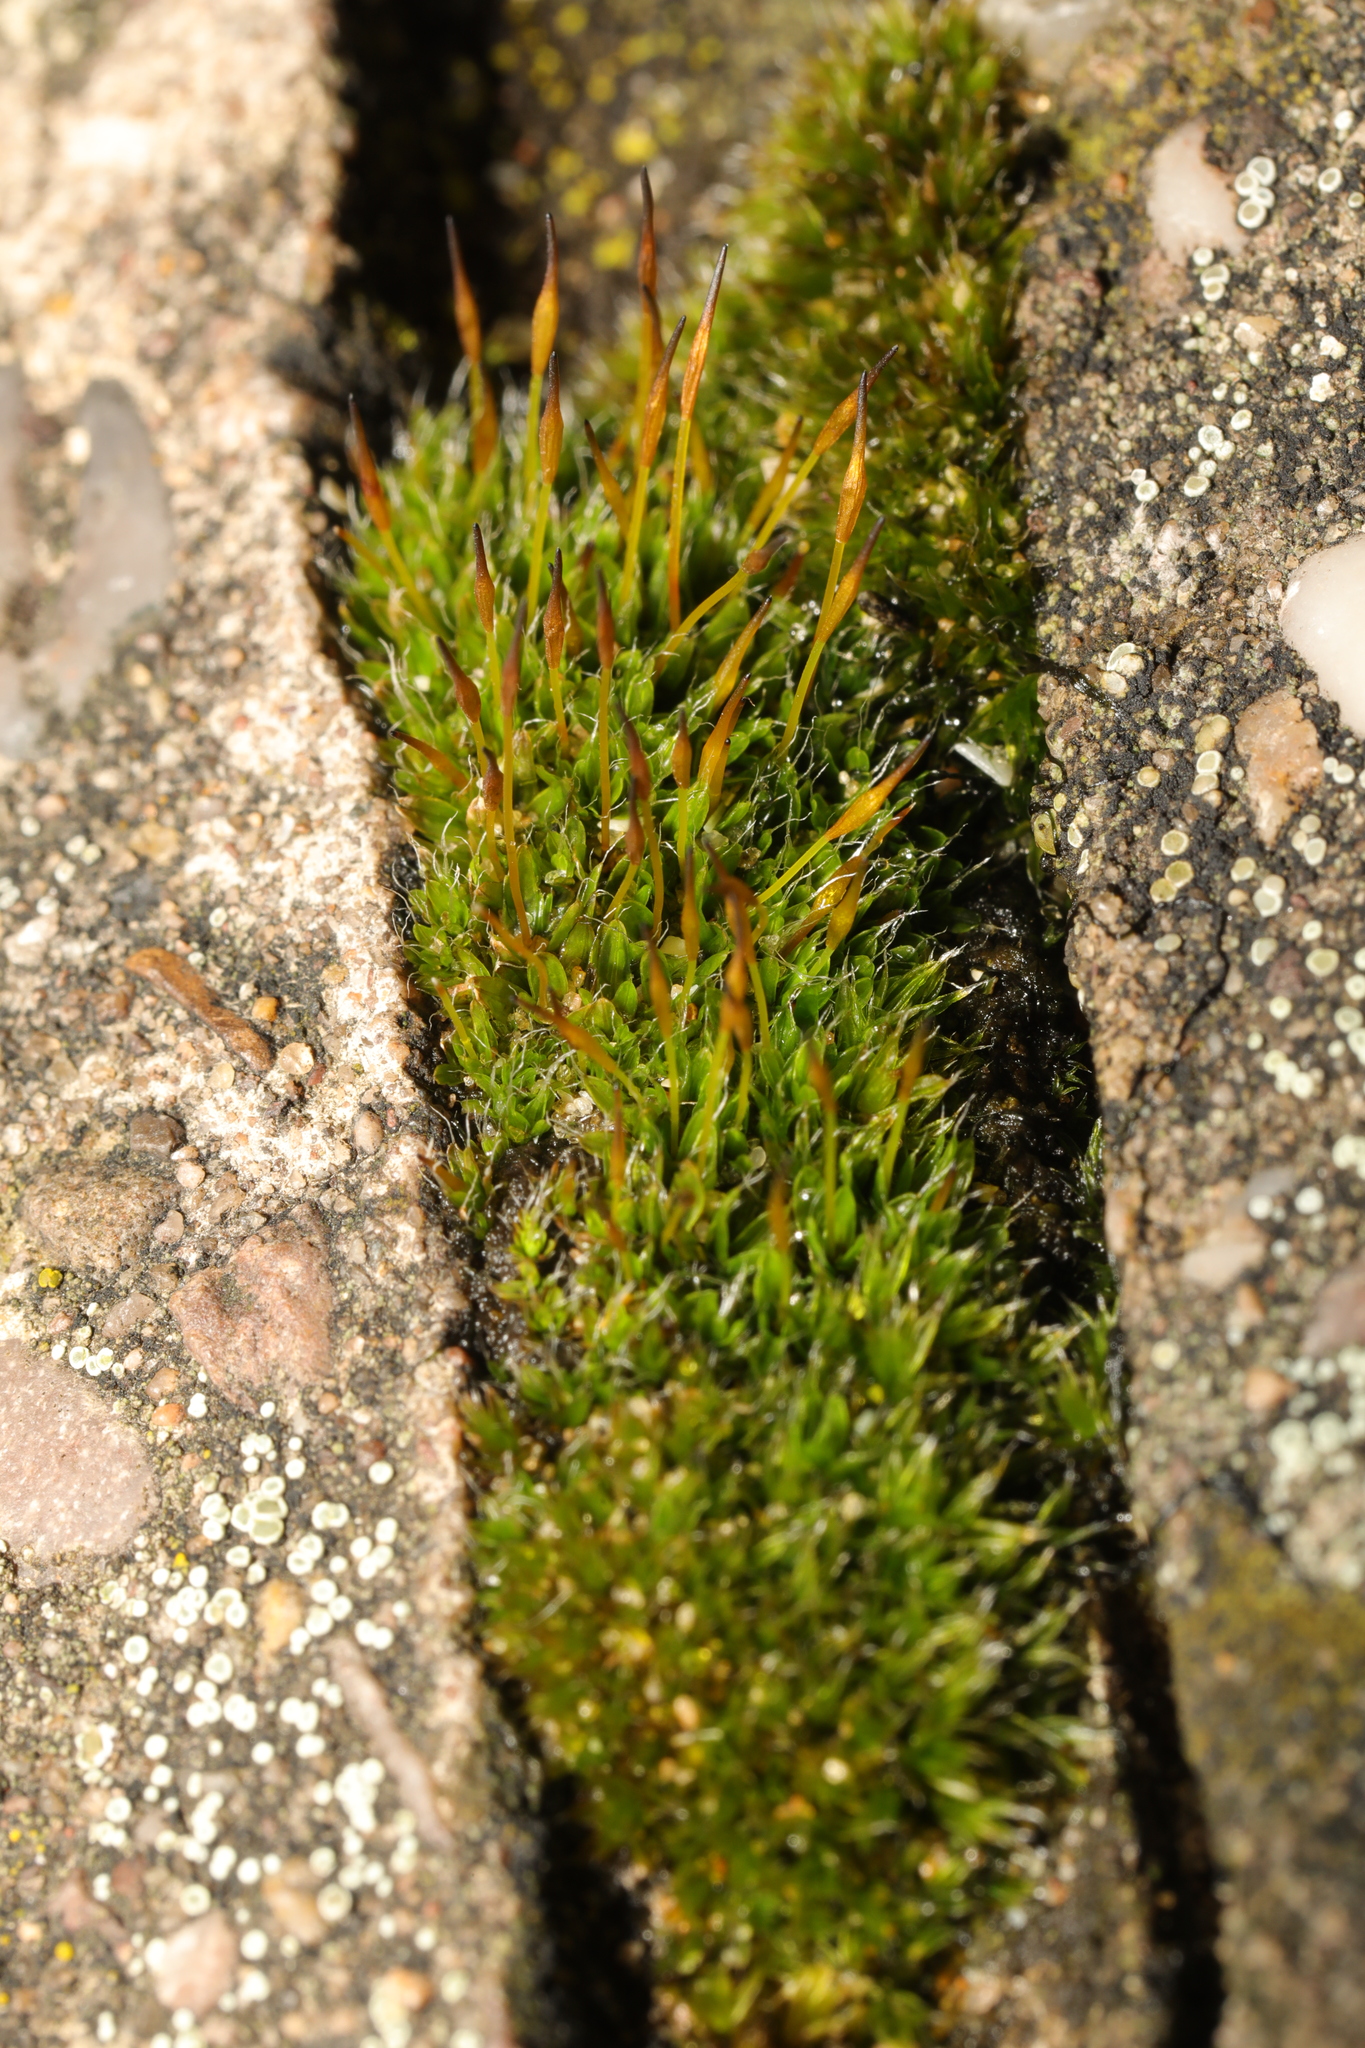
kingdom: Plantae
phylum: Bryophyta
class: Bryopsida
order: Pottiales
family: Pottiaceae
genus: Tortula
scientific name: Tortula muralis
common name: Wall screw-moss
